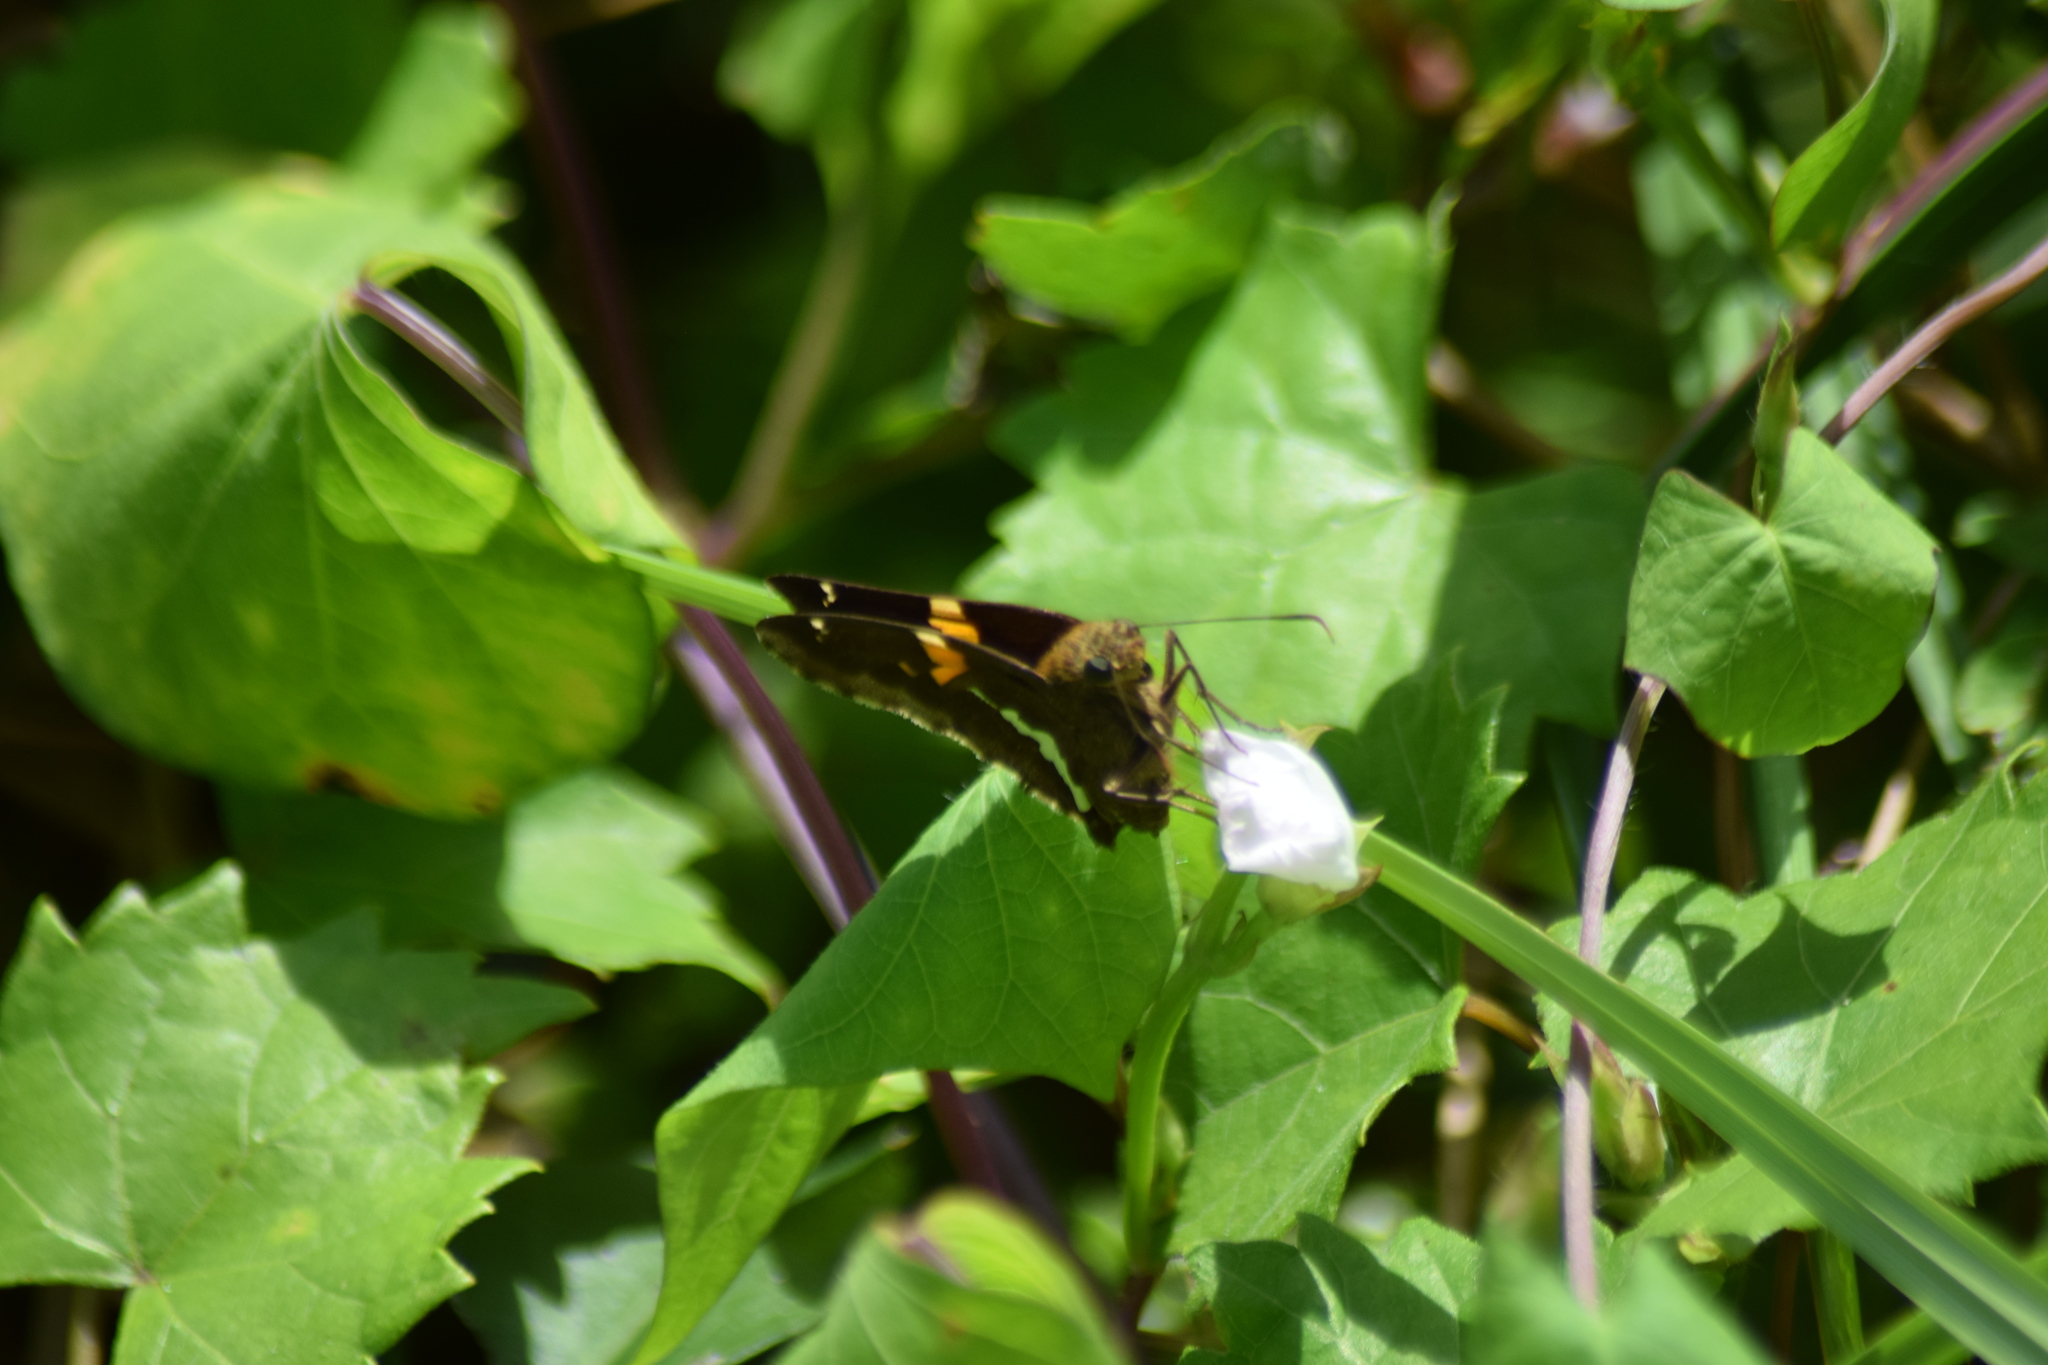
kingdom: Animalia
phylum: Arthropoda
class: Insecta
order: Lepidoptera
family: Hesperiidae
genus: Epargyreus
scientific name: Epargyreus clarus
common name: Silver-spotted skipper
